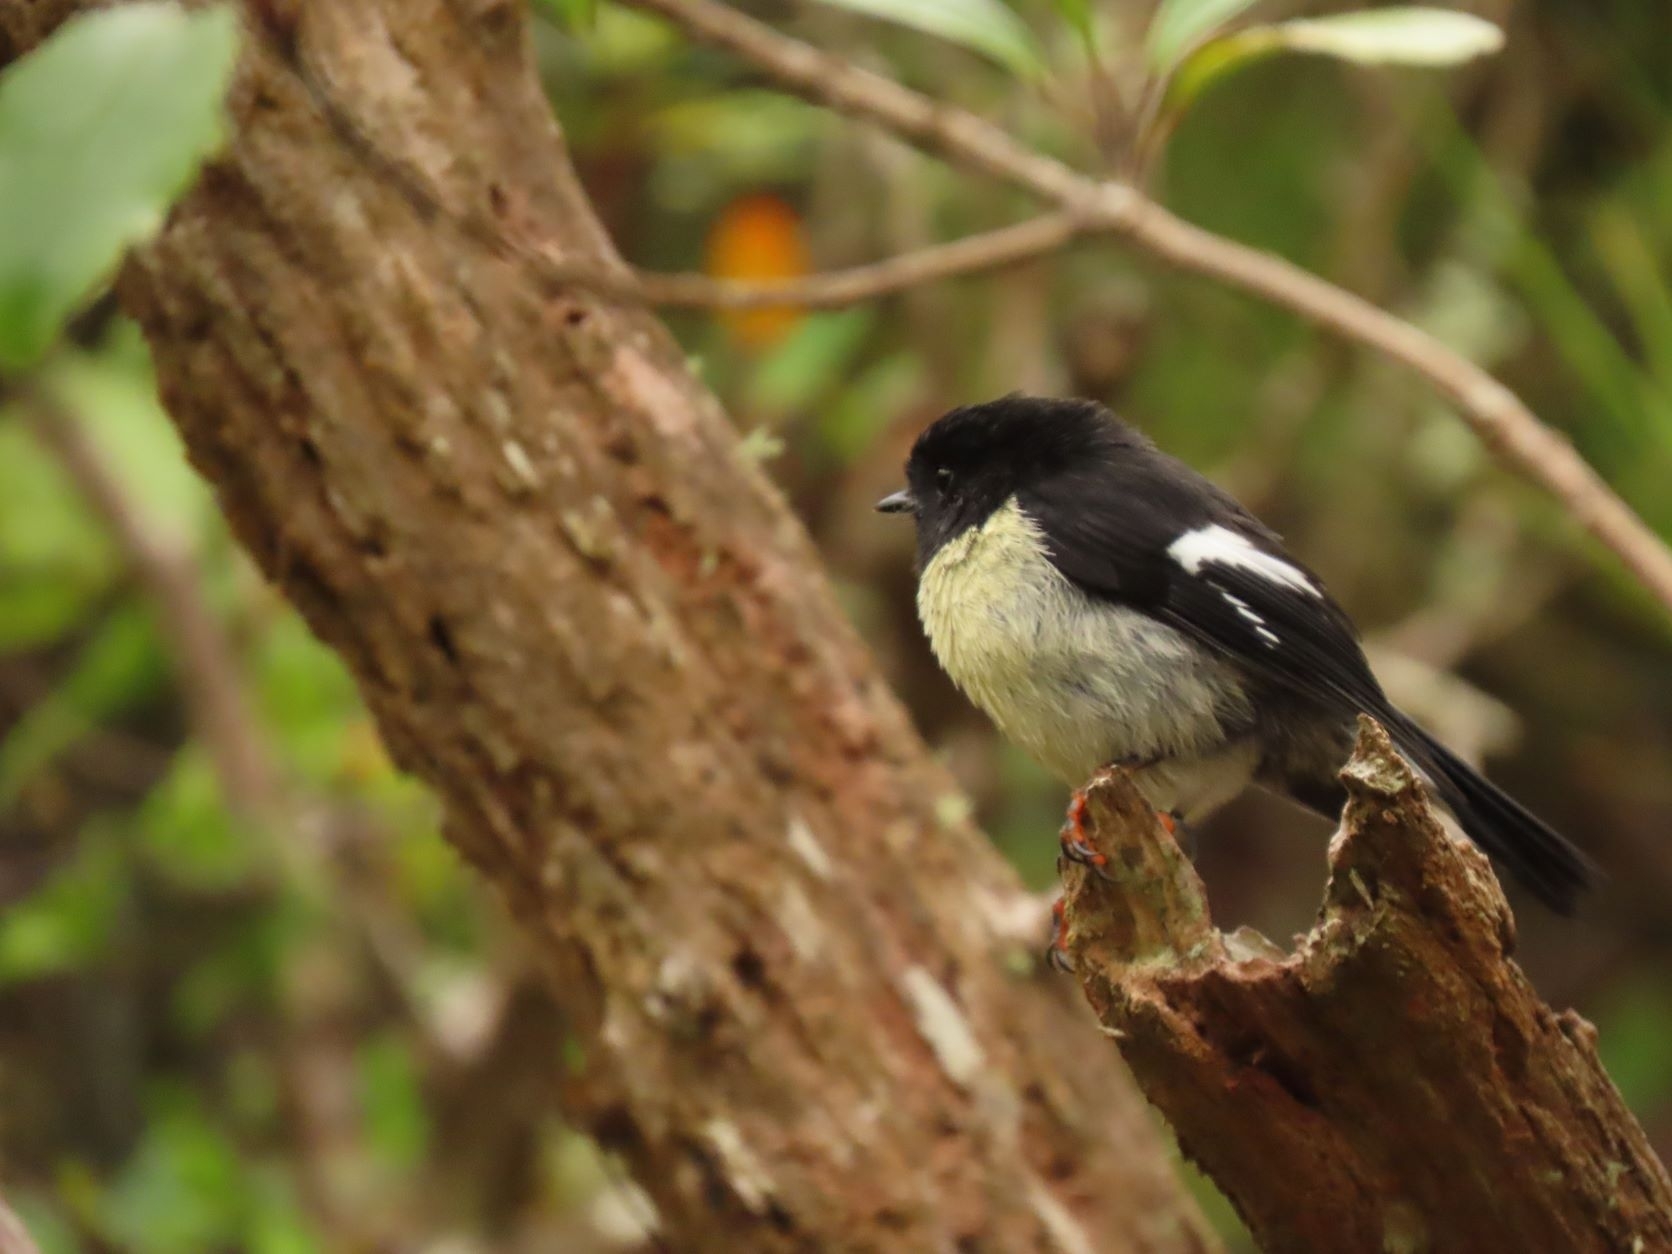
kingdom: Animalia
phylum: Chordata
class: Aves
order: Passeriformes
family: Petroicidae
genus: Petroica
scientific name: Petroica macrocephala
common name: Tomtit
